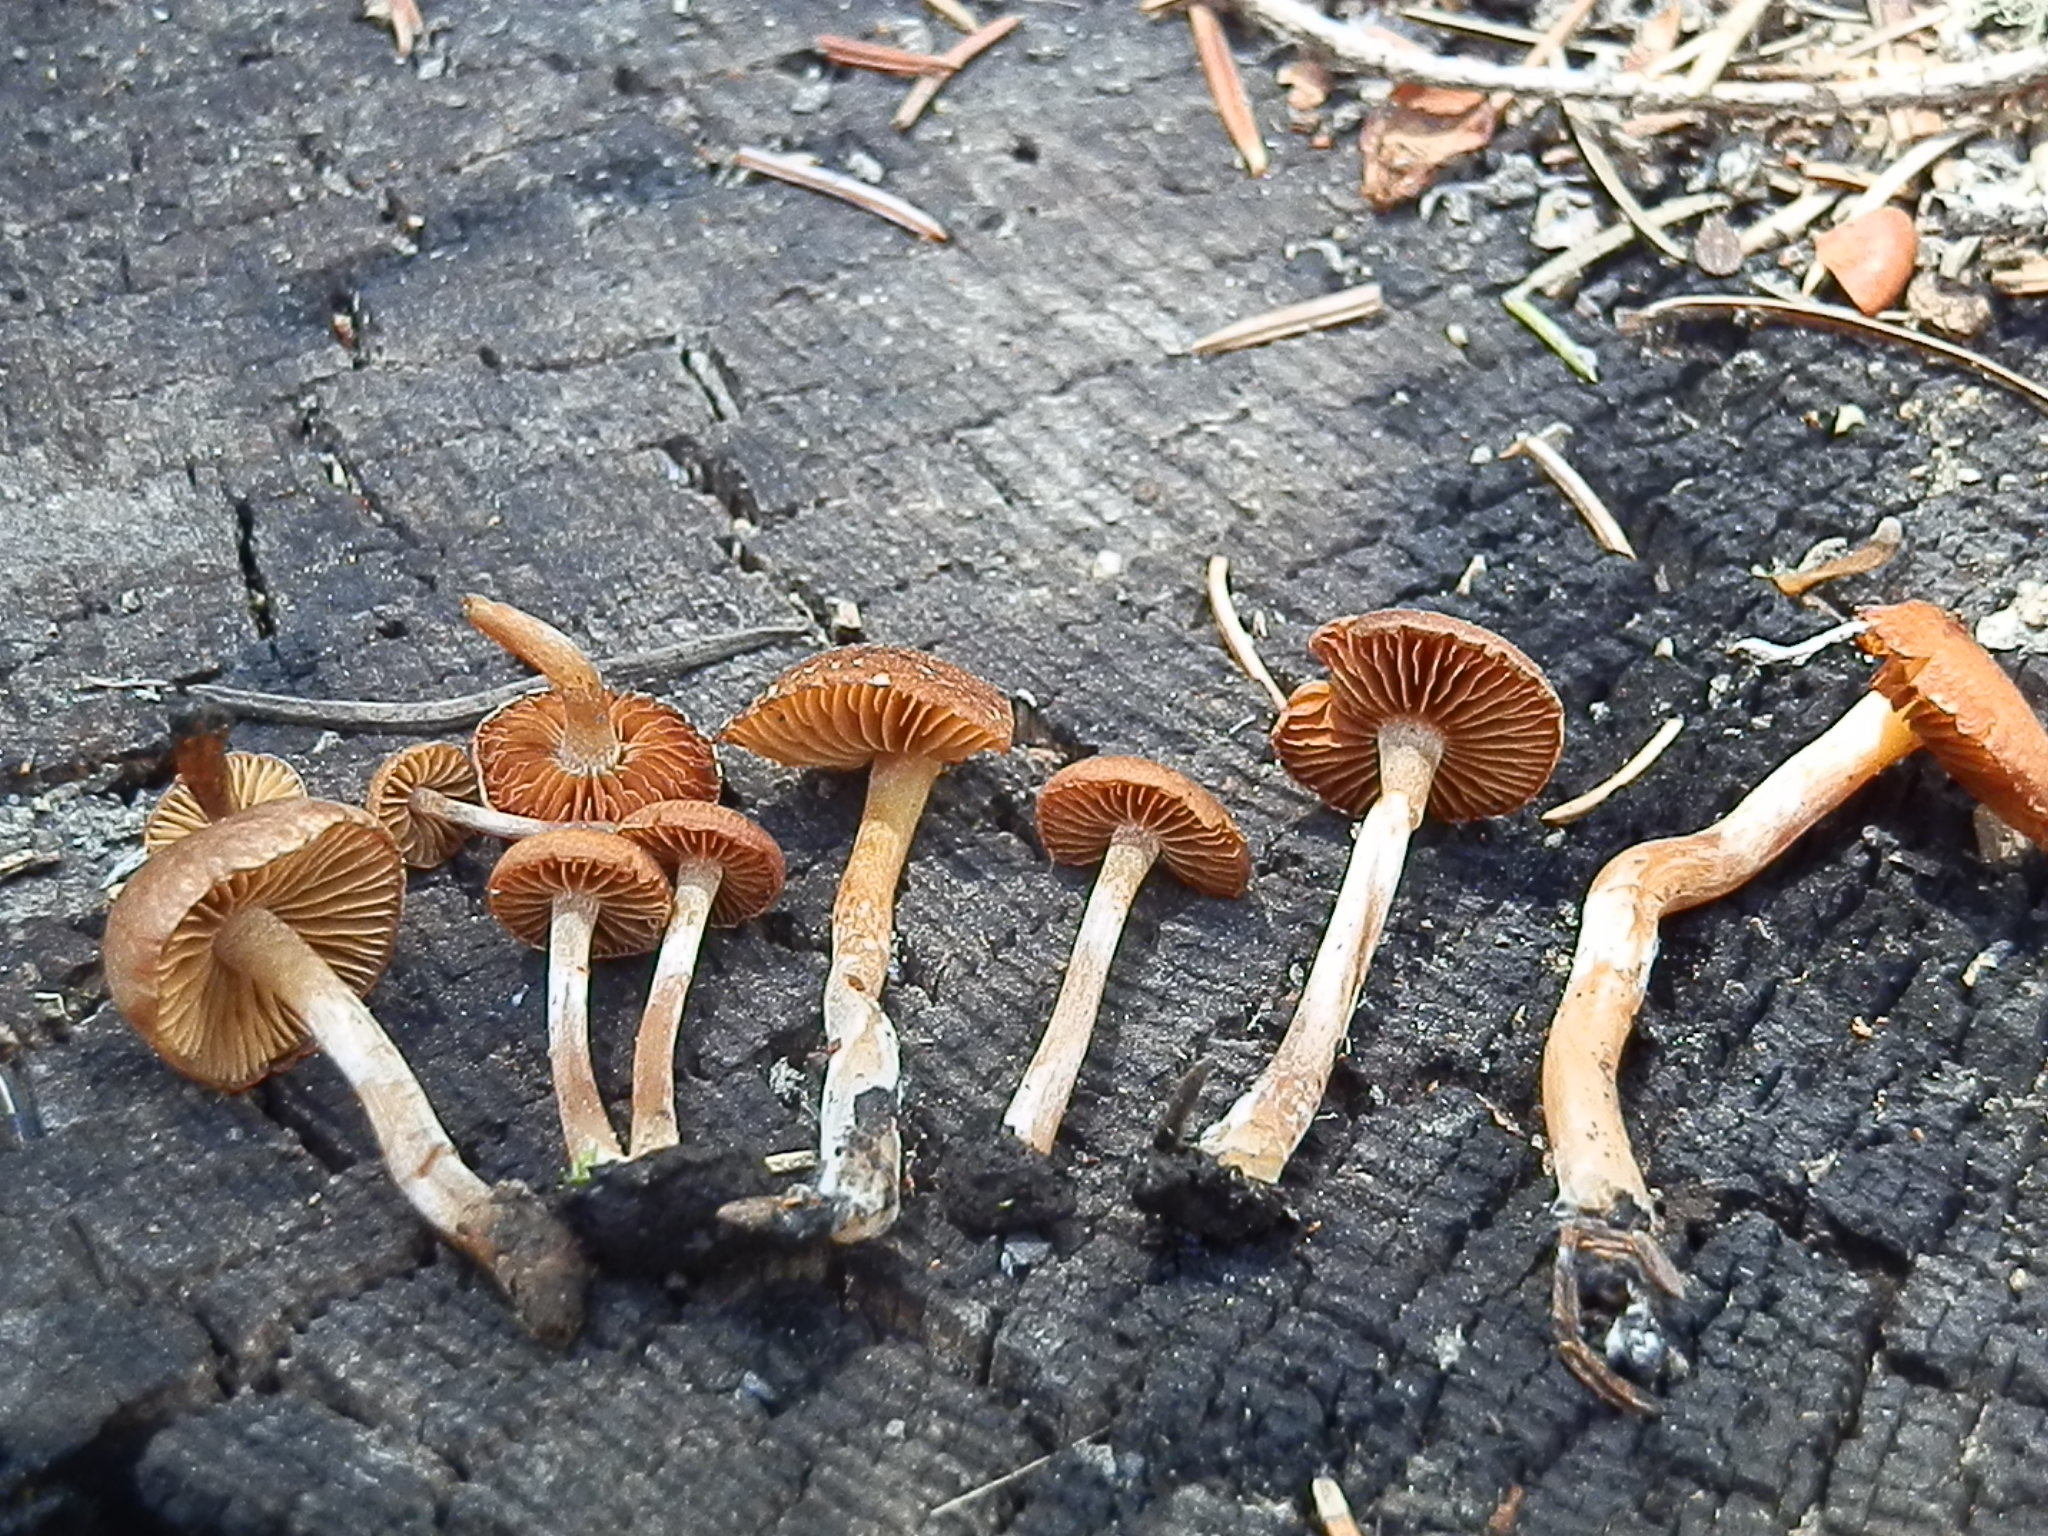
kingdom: Fungi
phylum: Basidiomycota
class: Agaricomycetes
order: Agaricales
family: Crassisporiaceae
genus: Crassisporium
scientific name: Crassisporium funariophilum
